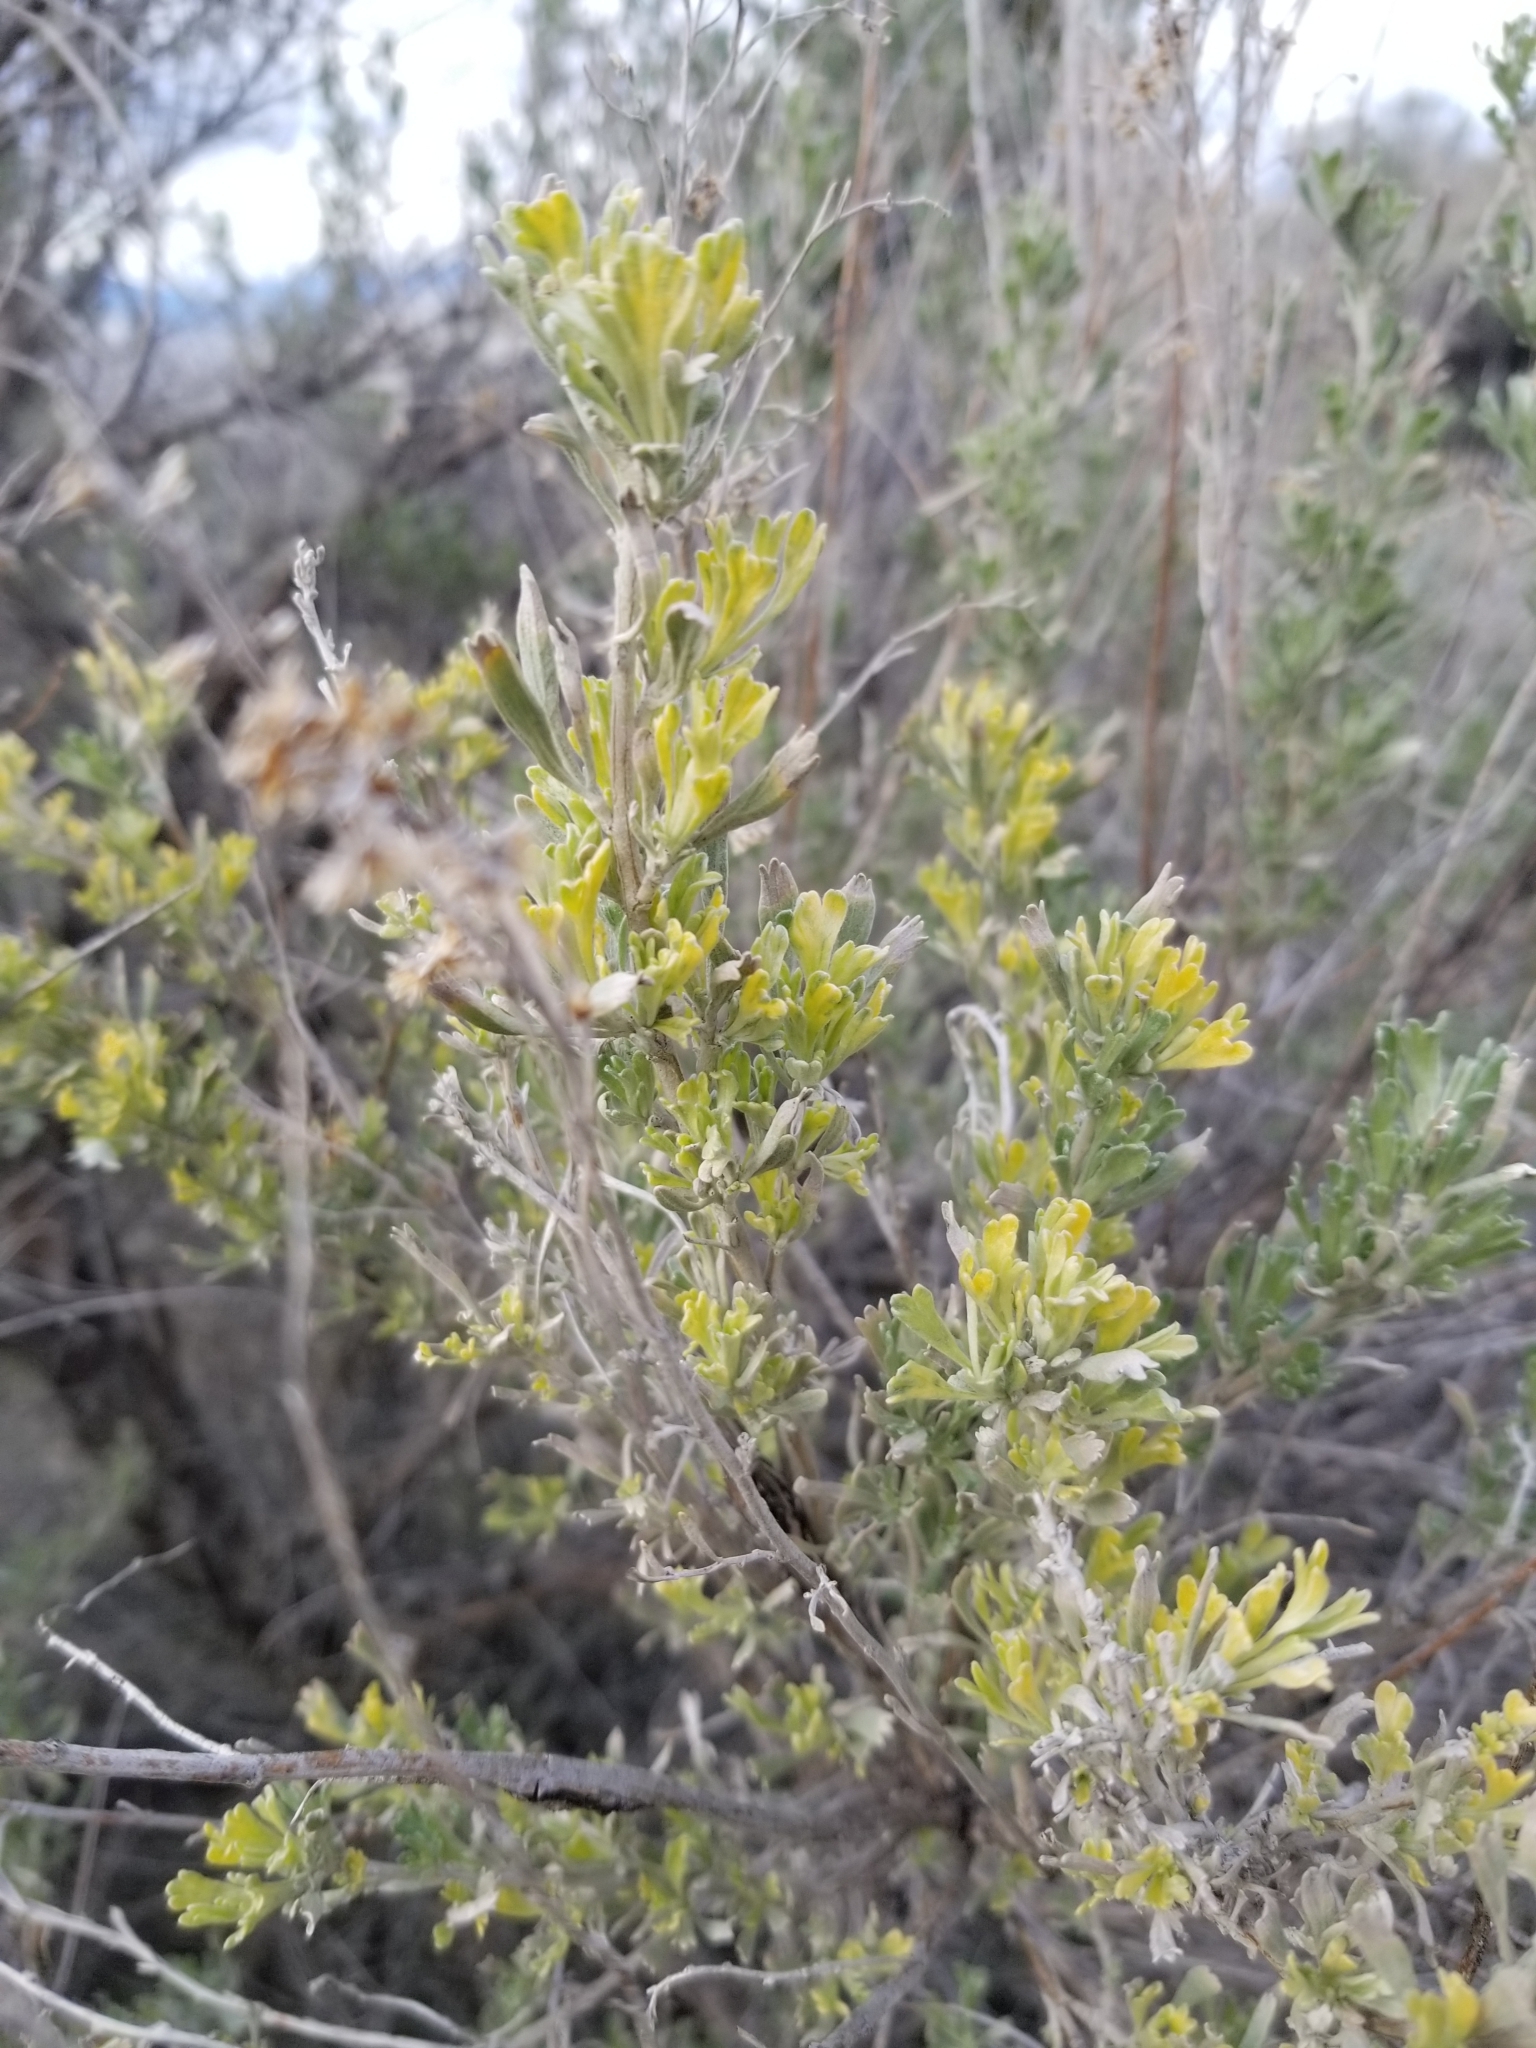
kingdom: Plantae
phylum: Tracheophyta
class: Magnoliopsida
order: Asterales
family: Asteraceae
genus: Artemisia
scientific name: Artemisia tridentata
